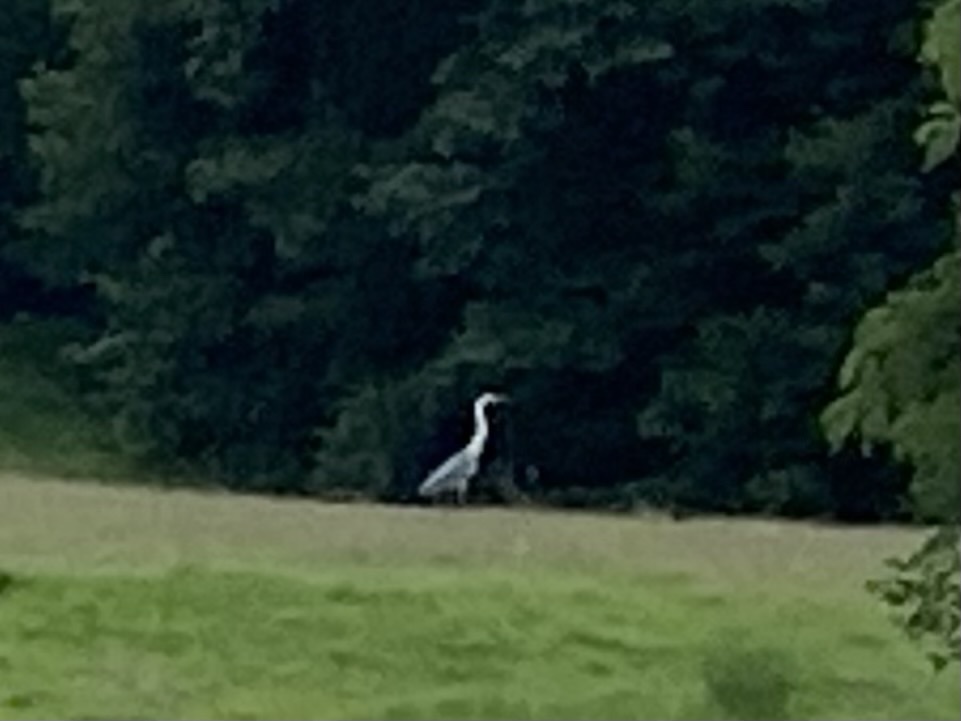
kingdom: Animalia
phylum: Chordata
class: Aves
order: Pelecaniformes
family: Ardeidae
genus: Ardea
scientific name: Ardea cinerea
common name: Grey heron
